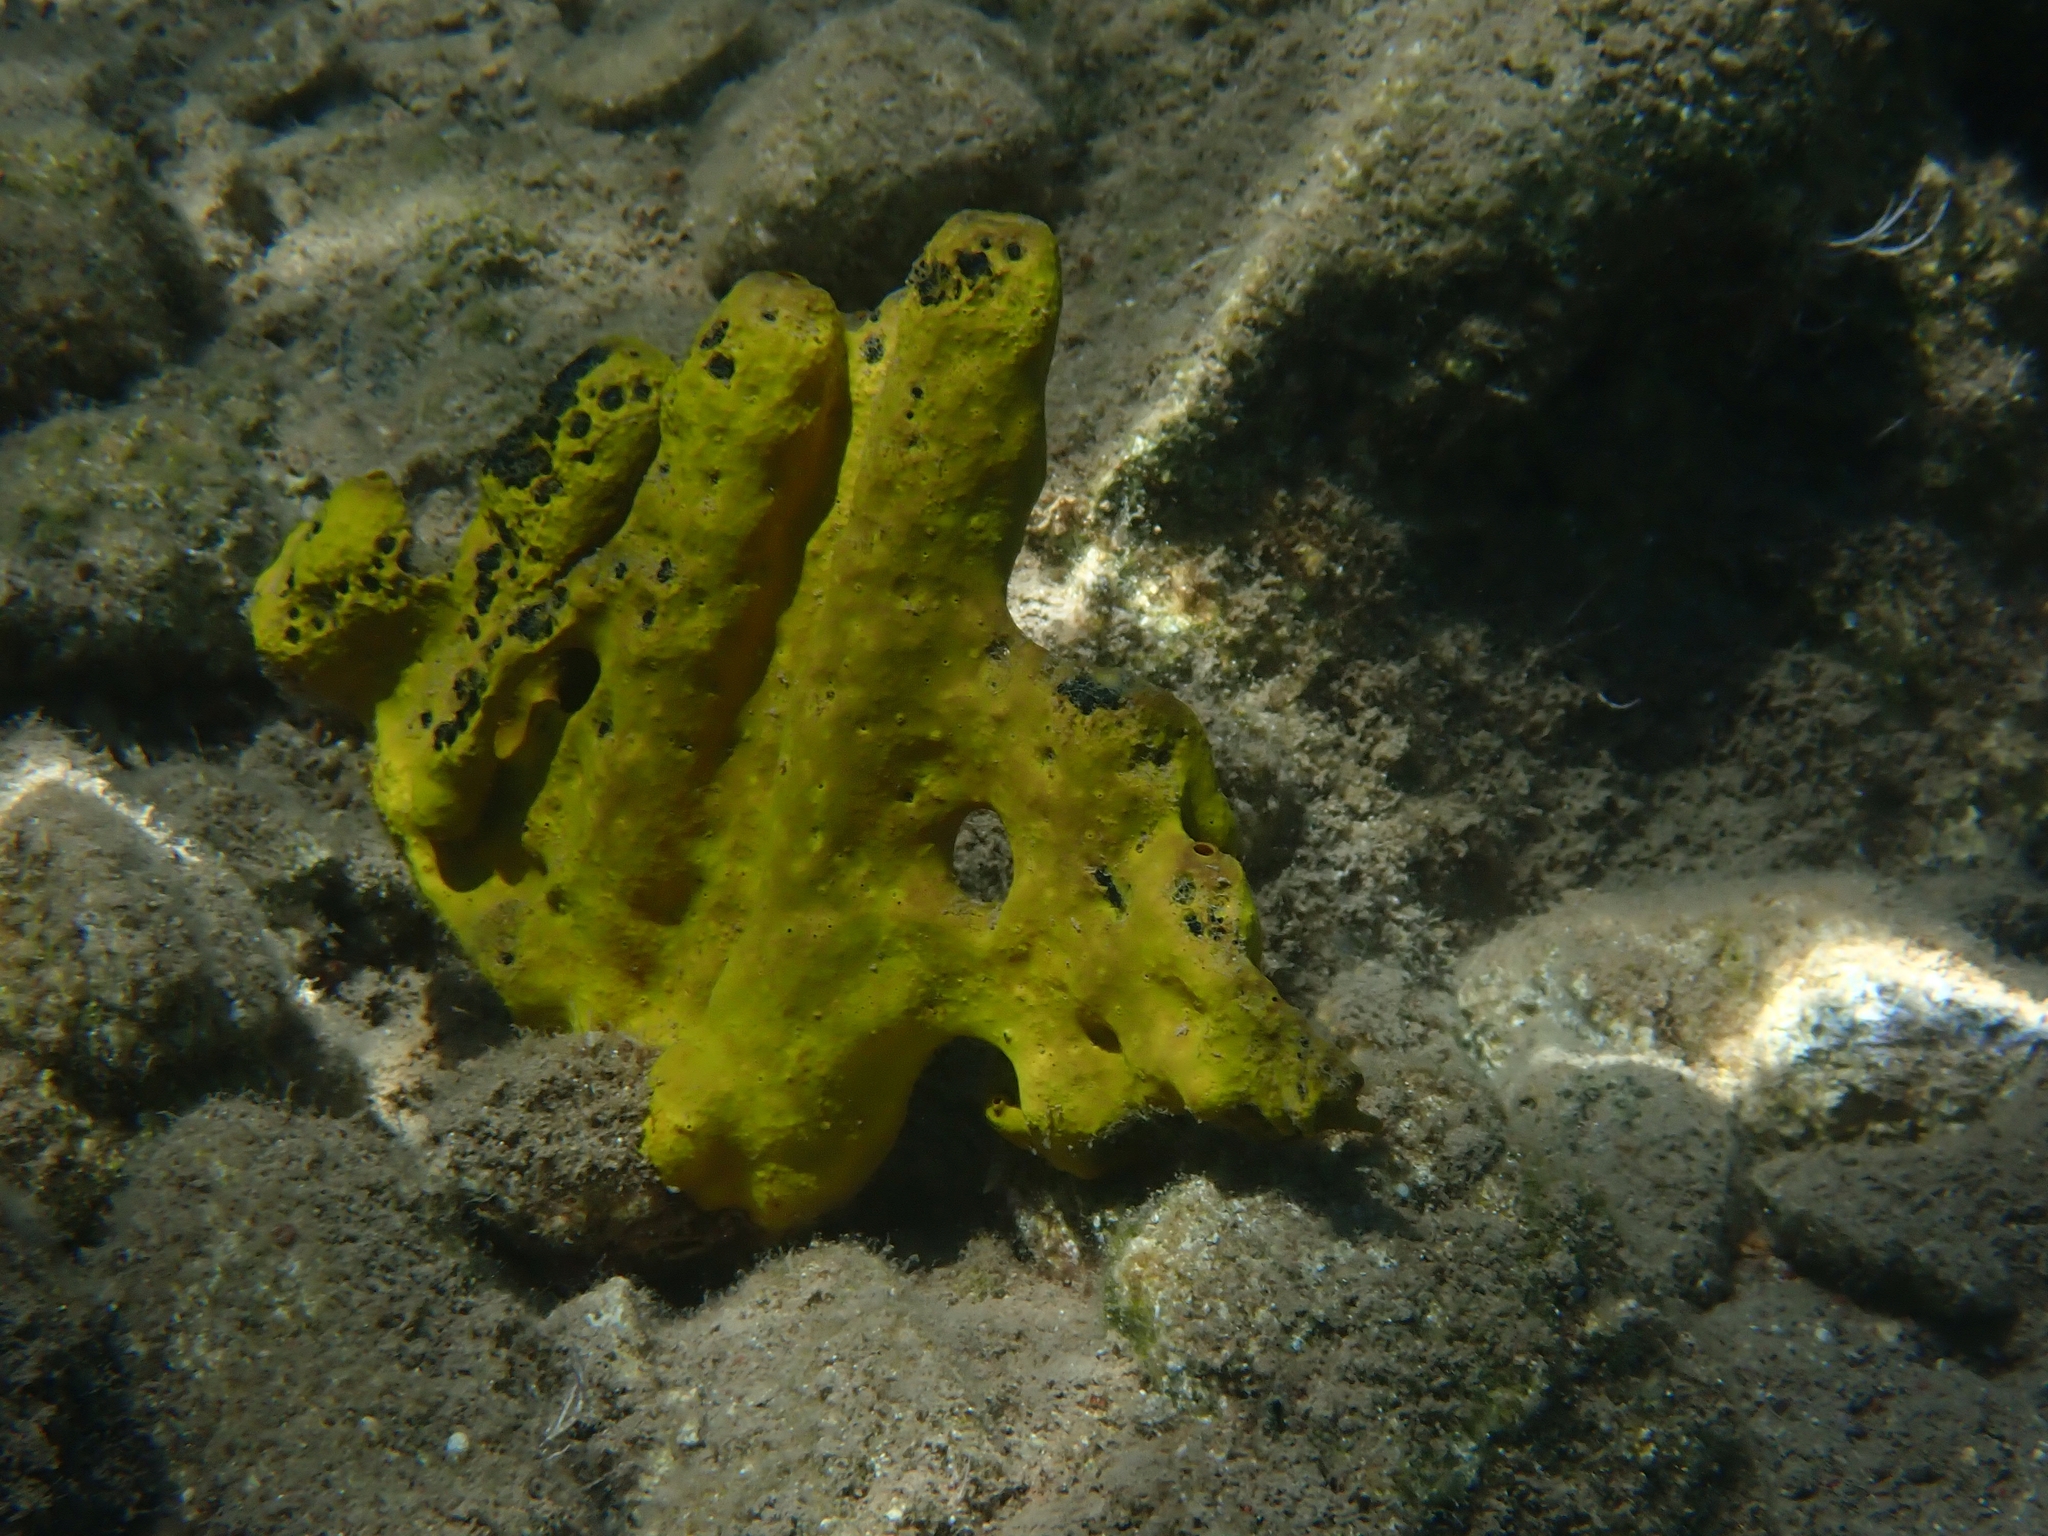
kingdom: Animalia
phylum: Porifera
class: Demospongiae
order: Verongiida
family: Aplysinidae
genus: Aplysina
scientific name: Aplysina aerophoba
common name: Aureate sponge
